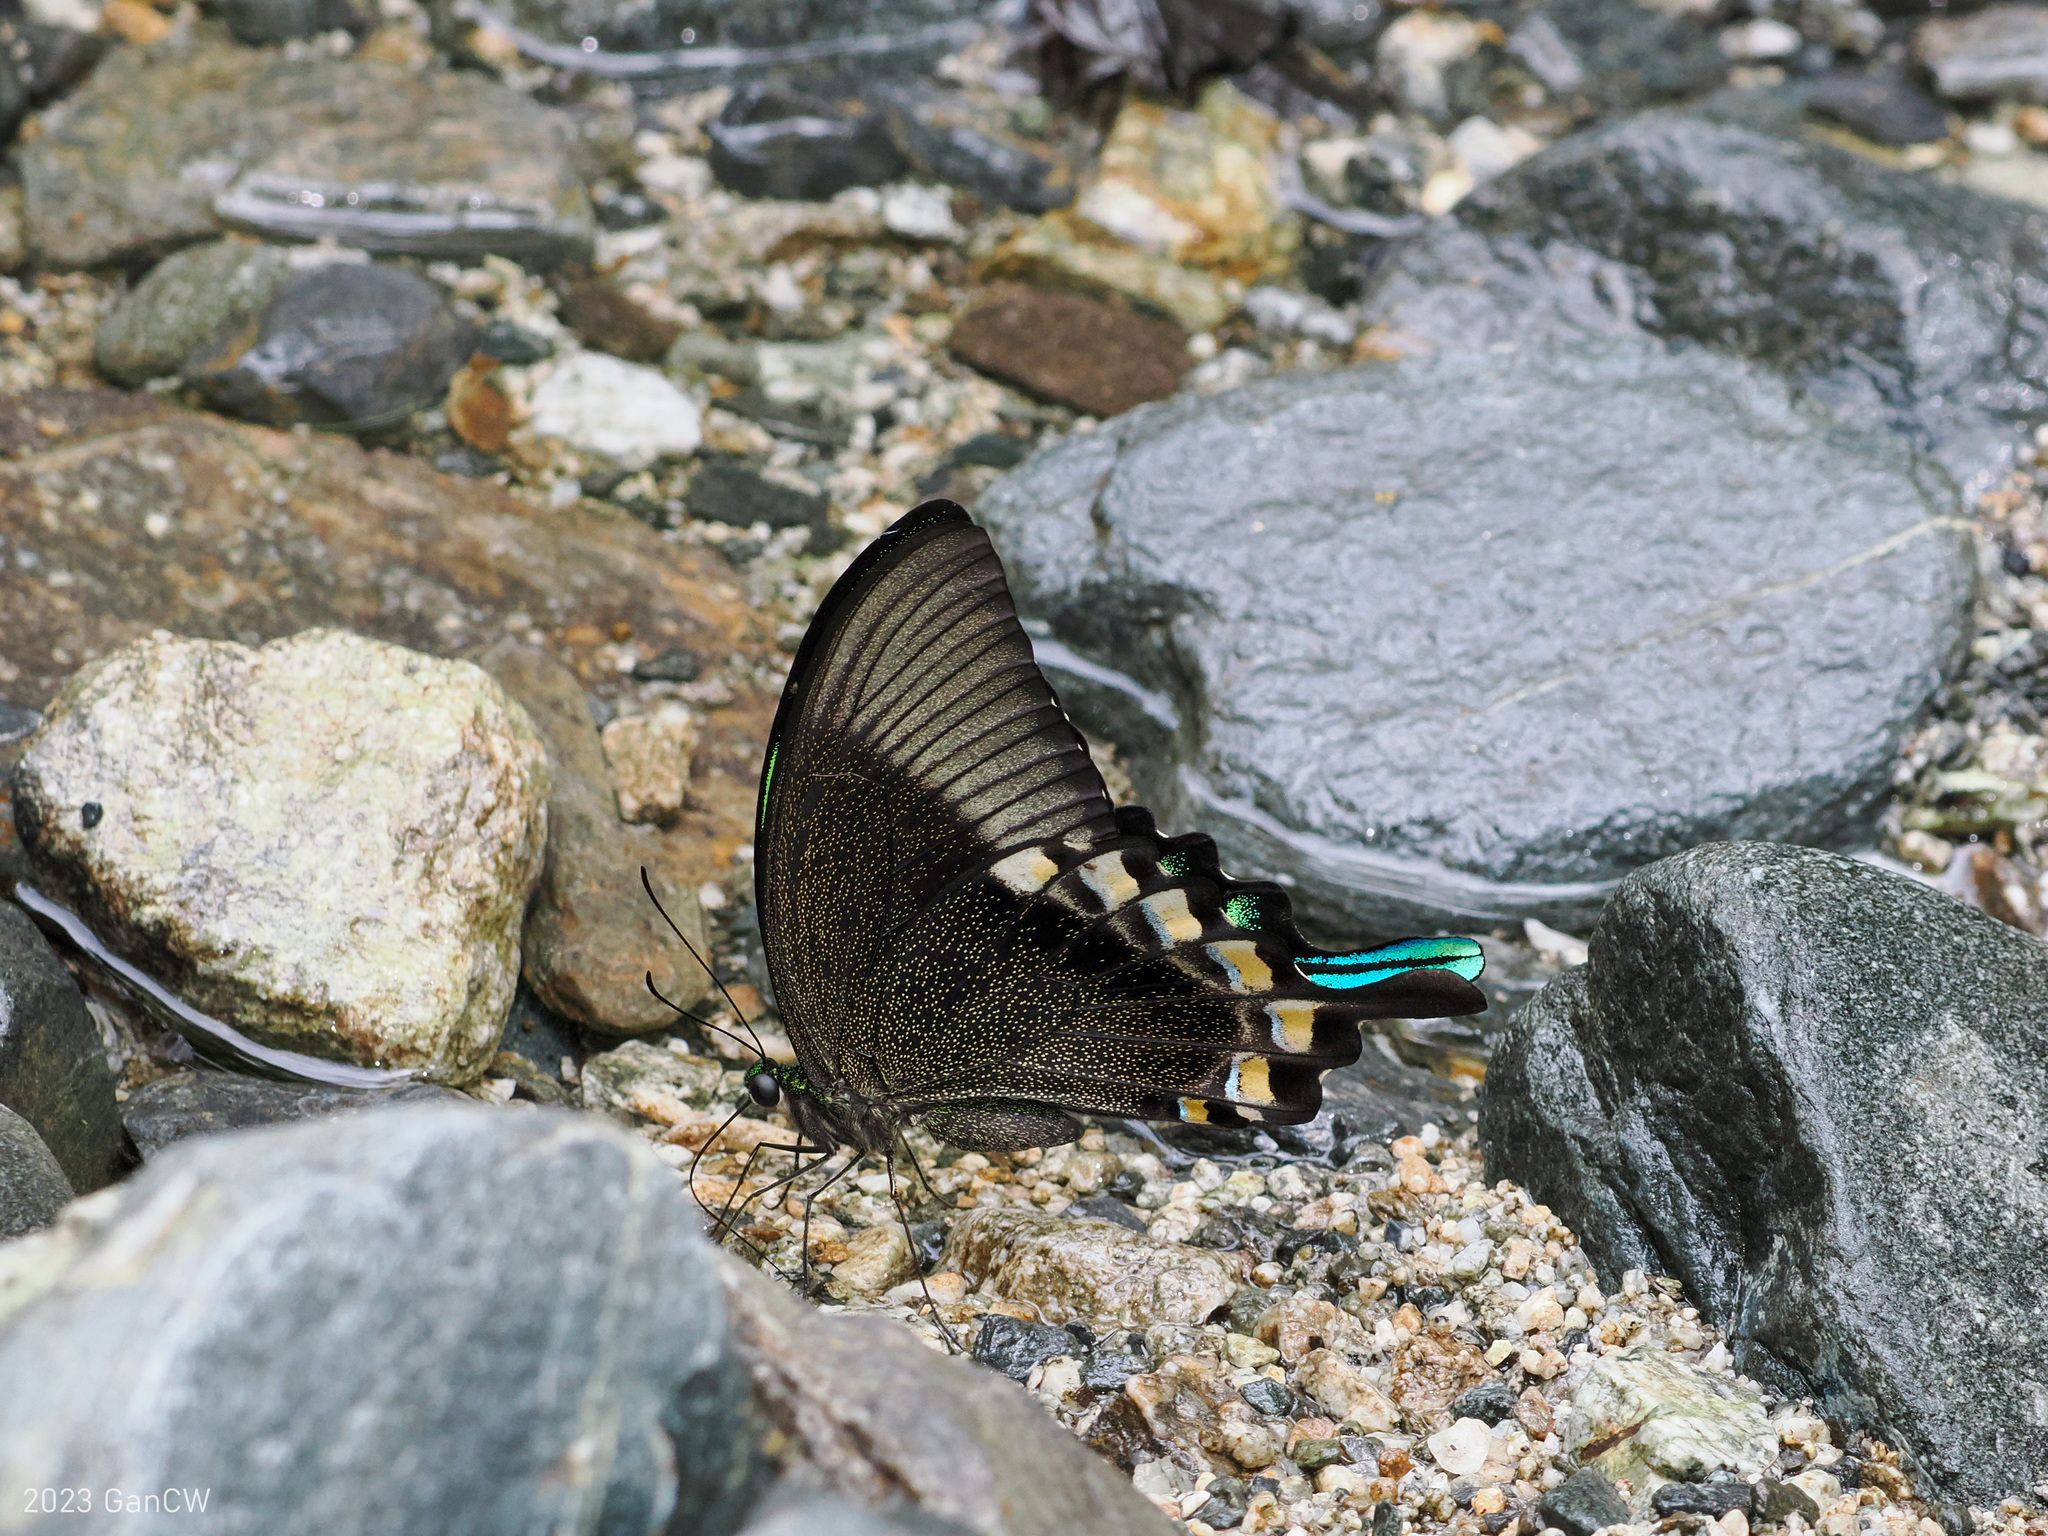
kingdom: Animalia
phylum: Arthropoda
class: Insecta
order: Lepidoptera
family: Papilionidae
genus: Papilio
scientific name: Papilio blumei
